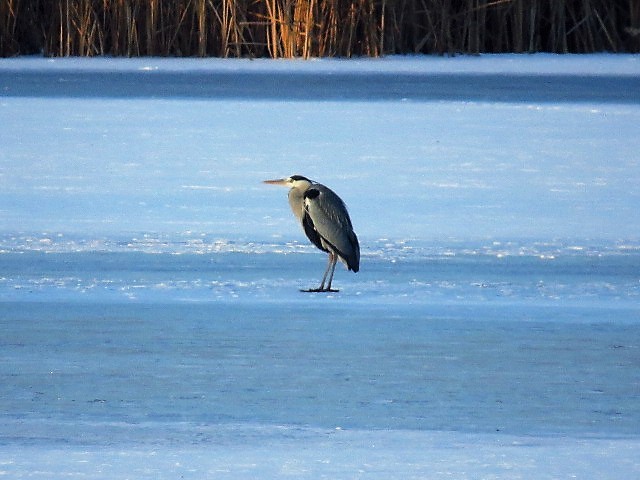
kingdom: Animalia
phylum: Chordata
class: Aves
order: Pelecaniformes
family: Ardeidae
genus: Ardea
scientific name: Ardea cinerea
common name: Grey heron
